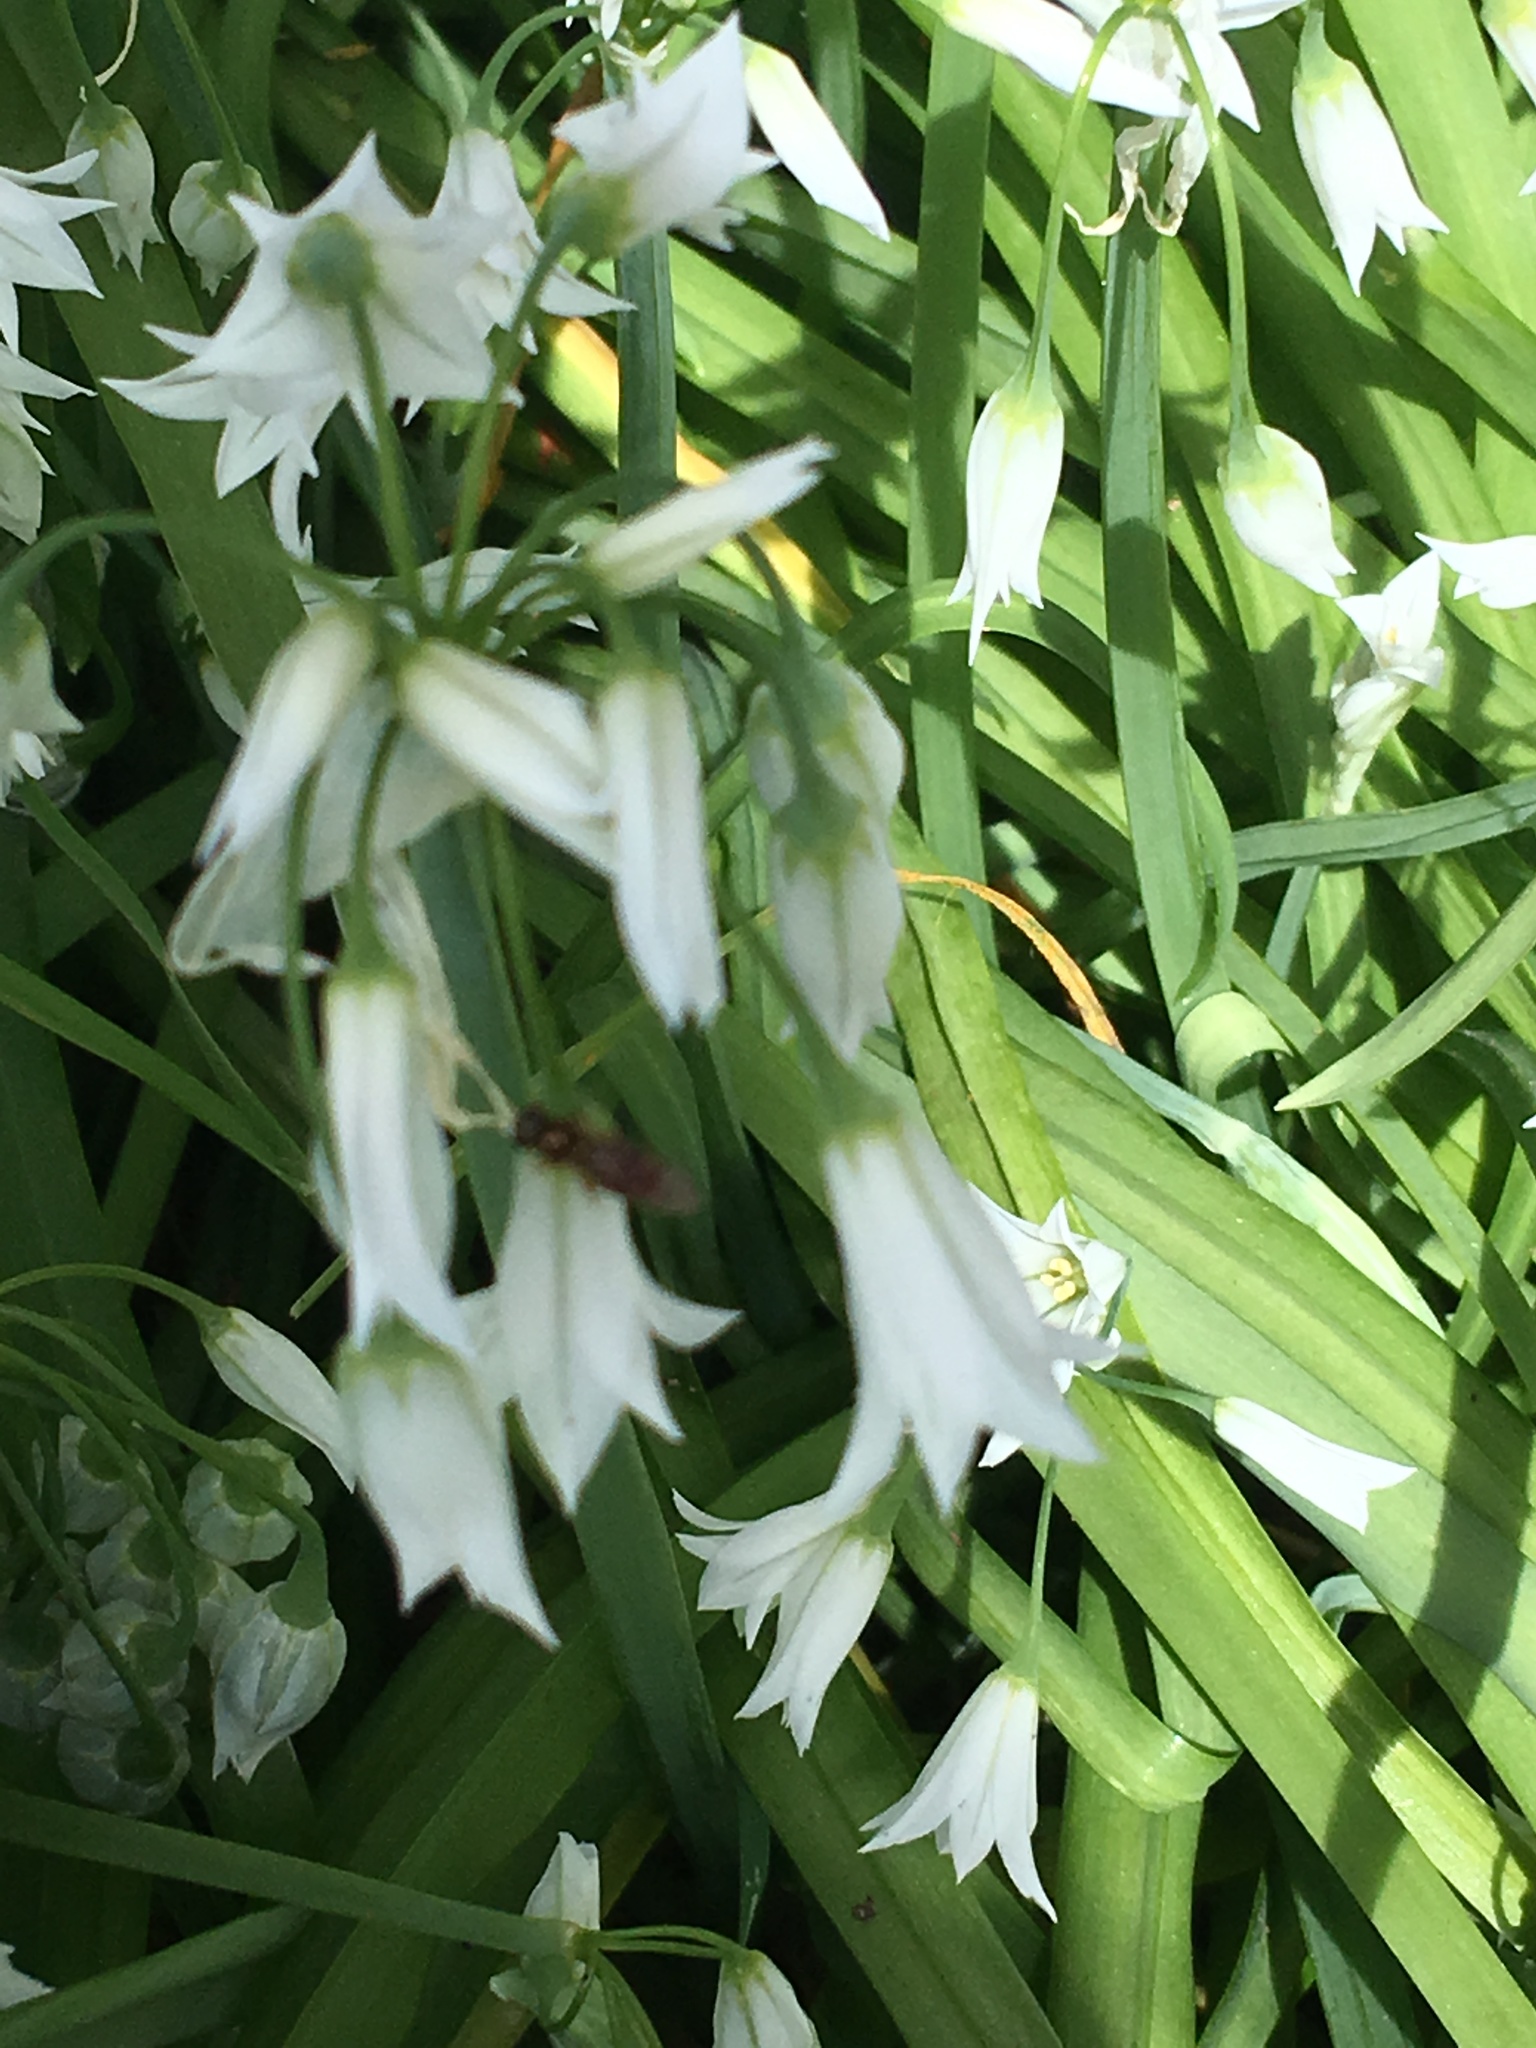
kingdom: Animalia
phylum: Arthropoda
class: Insecta
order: Diptera
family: Syrphidae
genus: Melanostoma
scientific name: Melanostoma fasciatum
